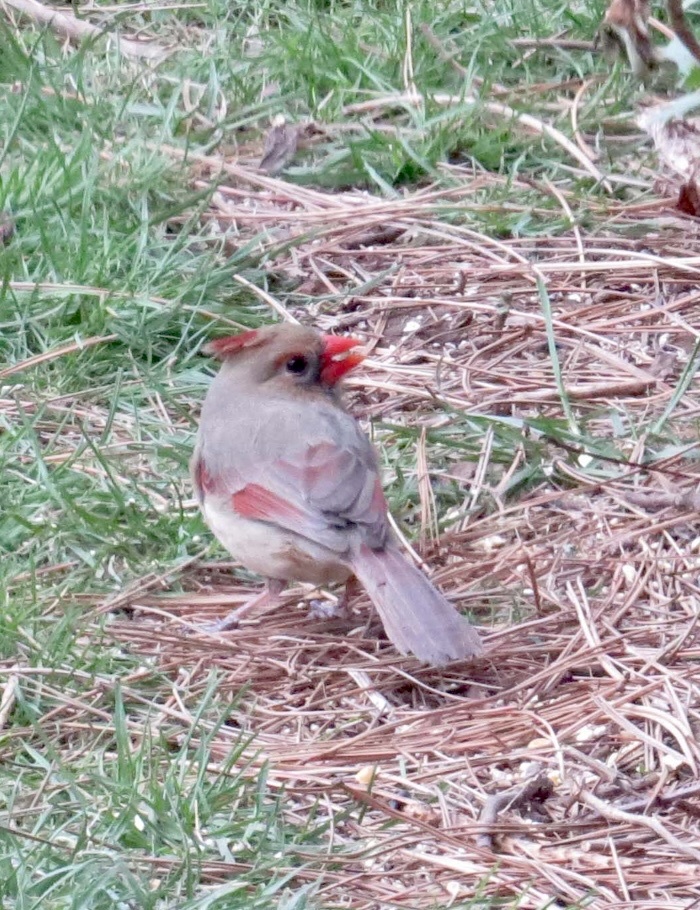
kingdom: Animalia
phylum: Chordata
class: Aves
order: Passeriformes
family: Cardinalidae
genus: Cardinalis
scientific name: Cardinalis cardinalis
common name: Northern cardinal
